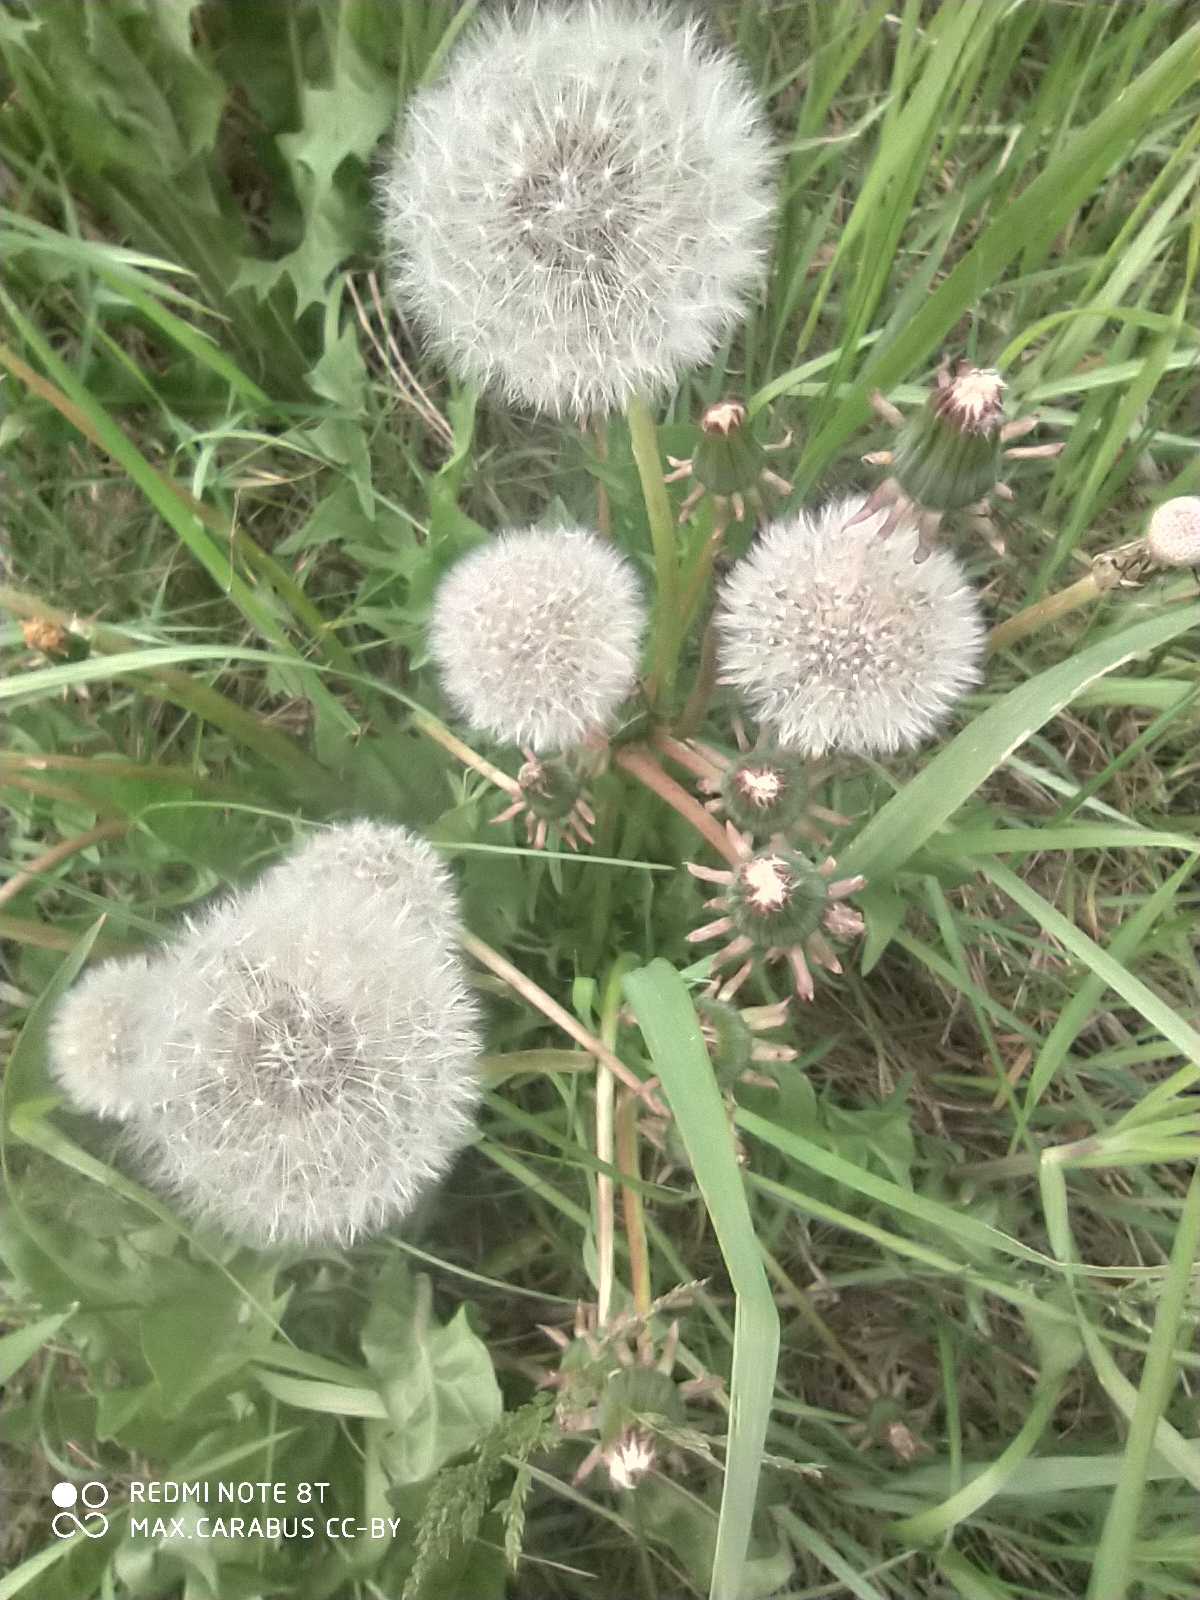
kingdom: Plantae
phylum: Tracheophyta
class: Magnoliopsida
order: Asterales
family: Asteraceae
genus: Taraxacum
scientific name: Taraxacum officinale
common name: Common dandelion
